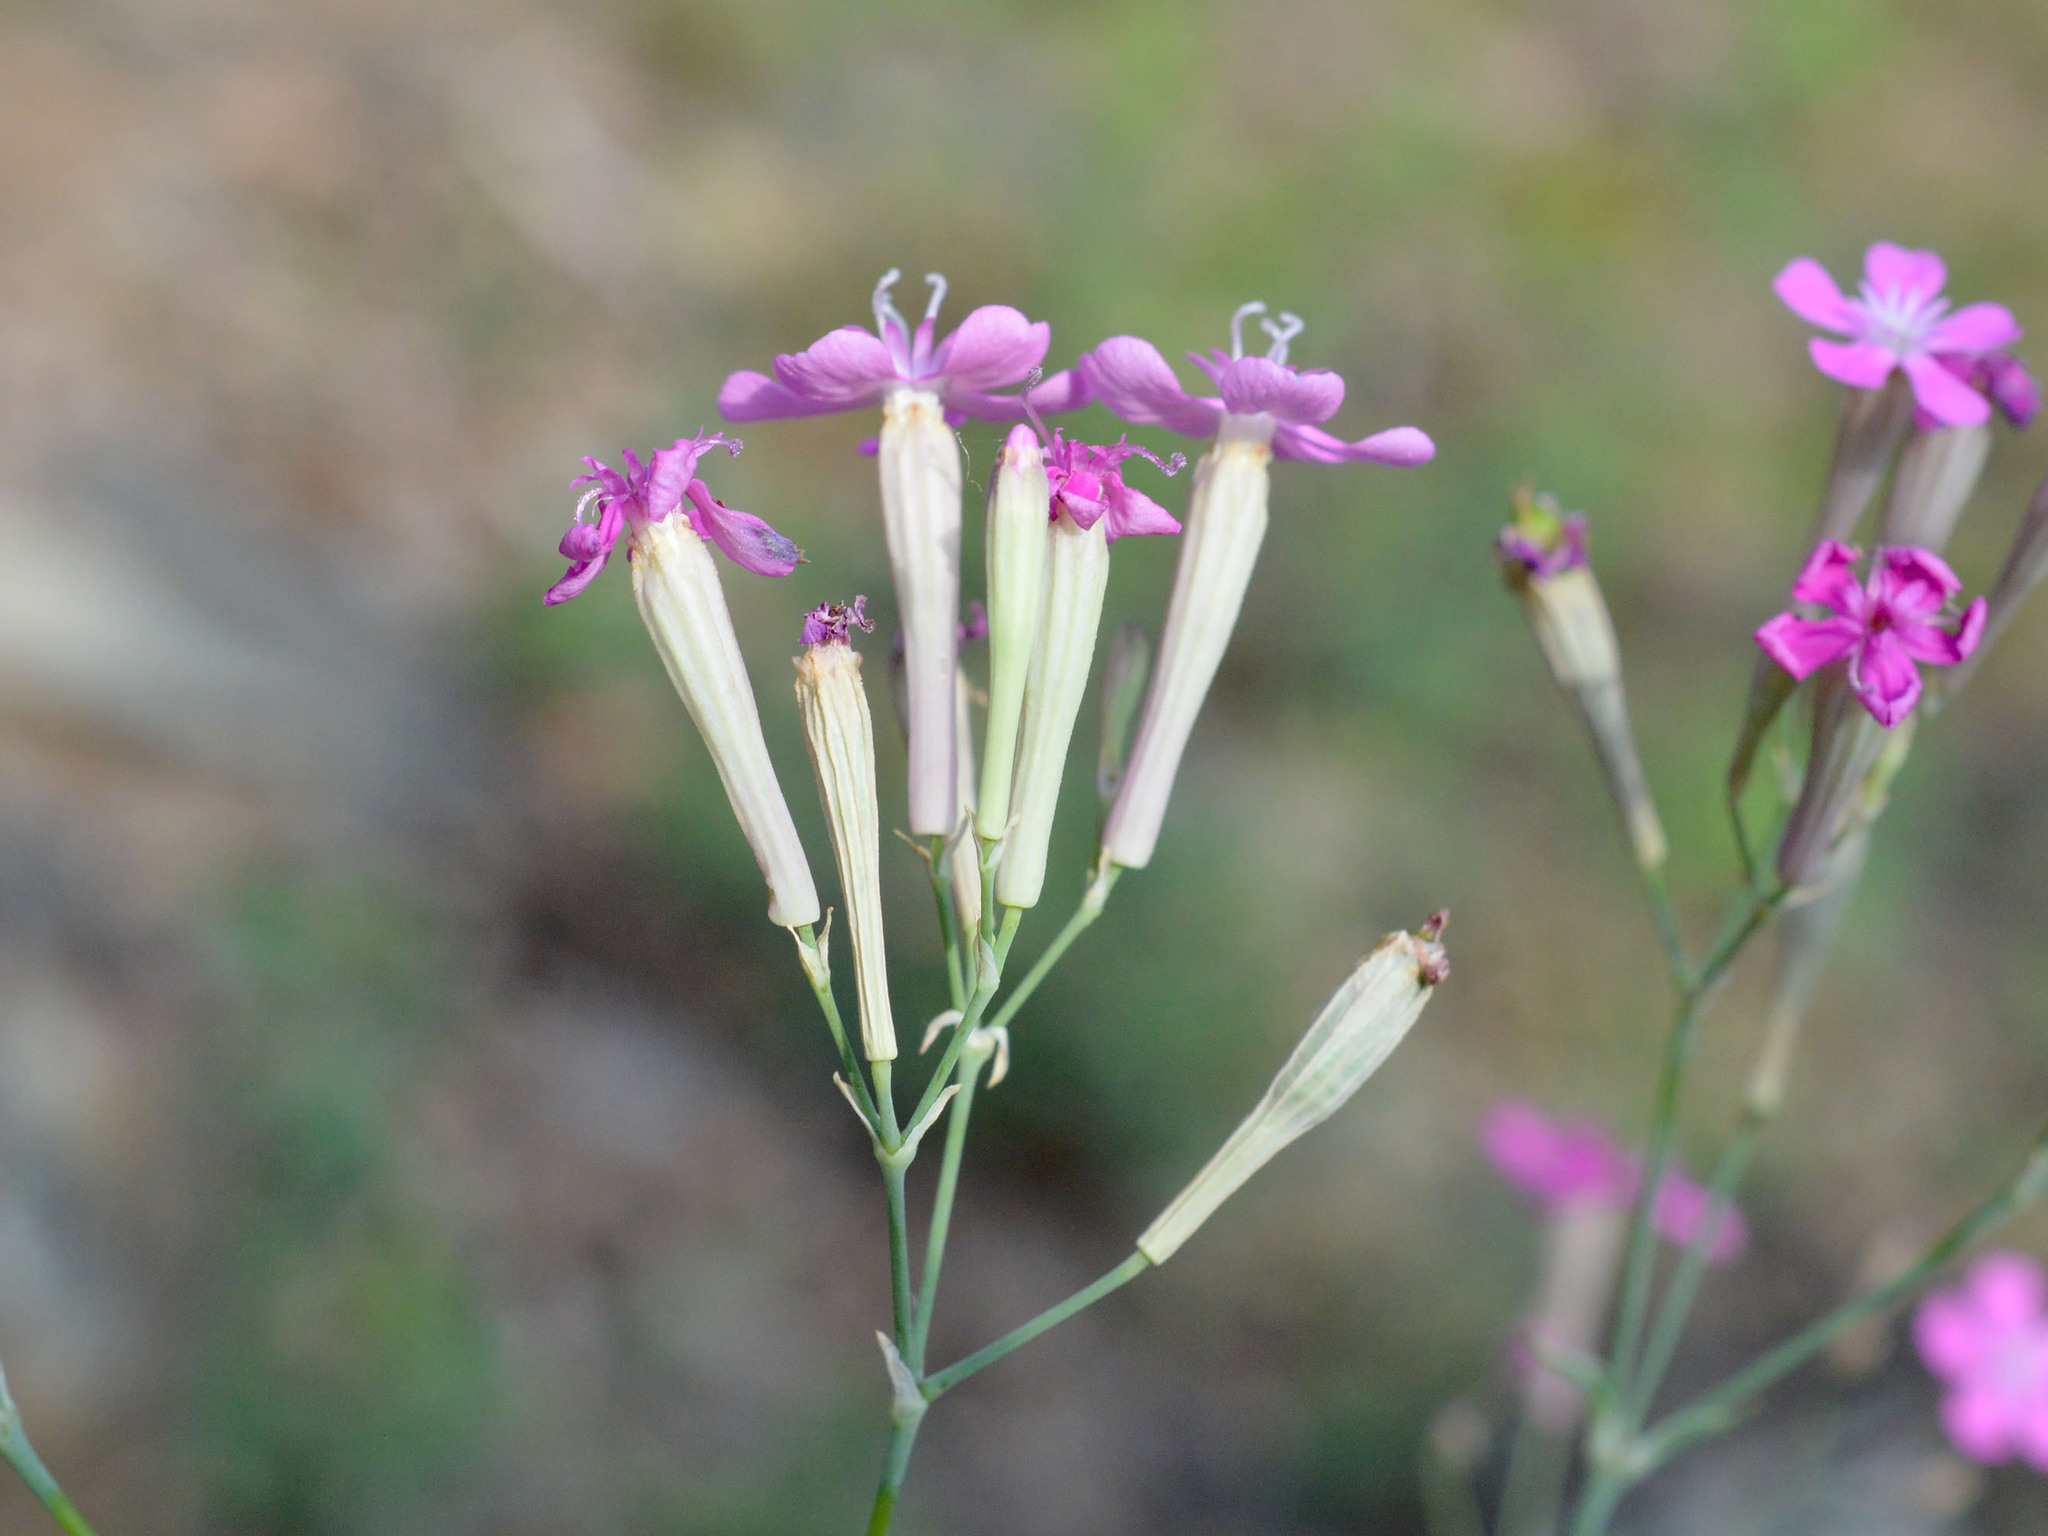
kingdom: Plantae
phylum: Tracheophyta
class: Magnoliopsida
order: Caryophyllales
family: Caryophyllaceae
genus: Atocion
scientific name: Atocion armeria
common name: Sweet william catchfly
